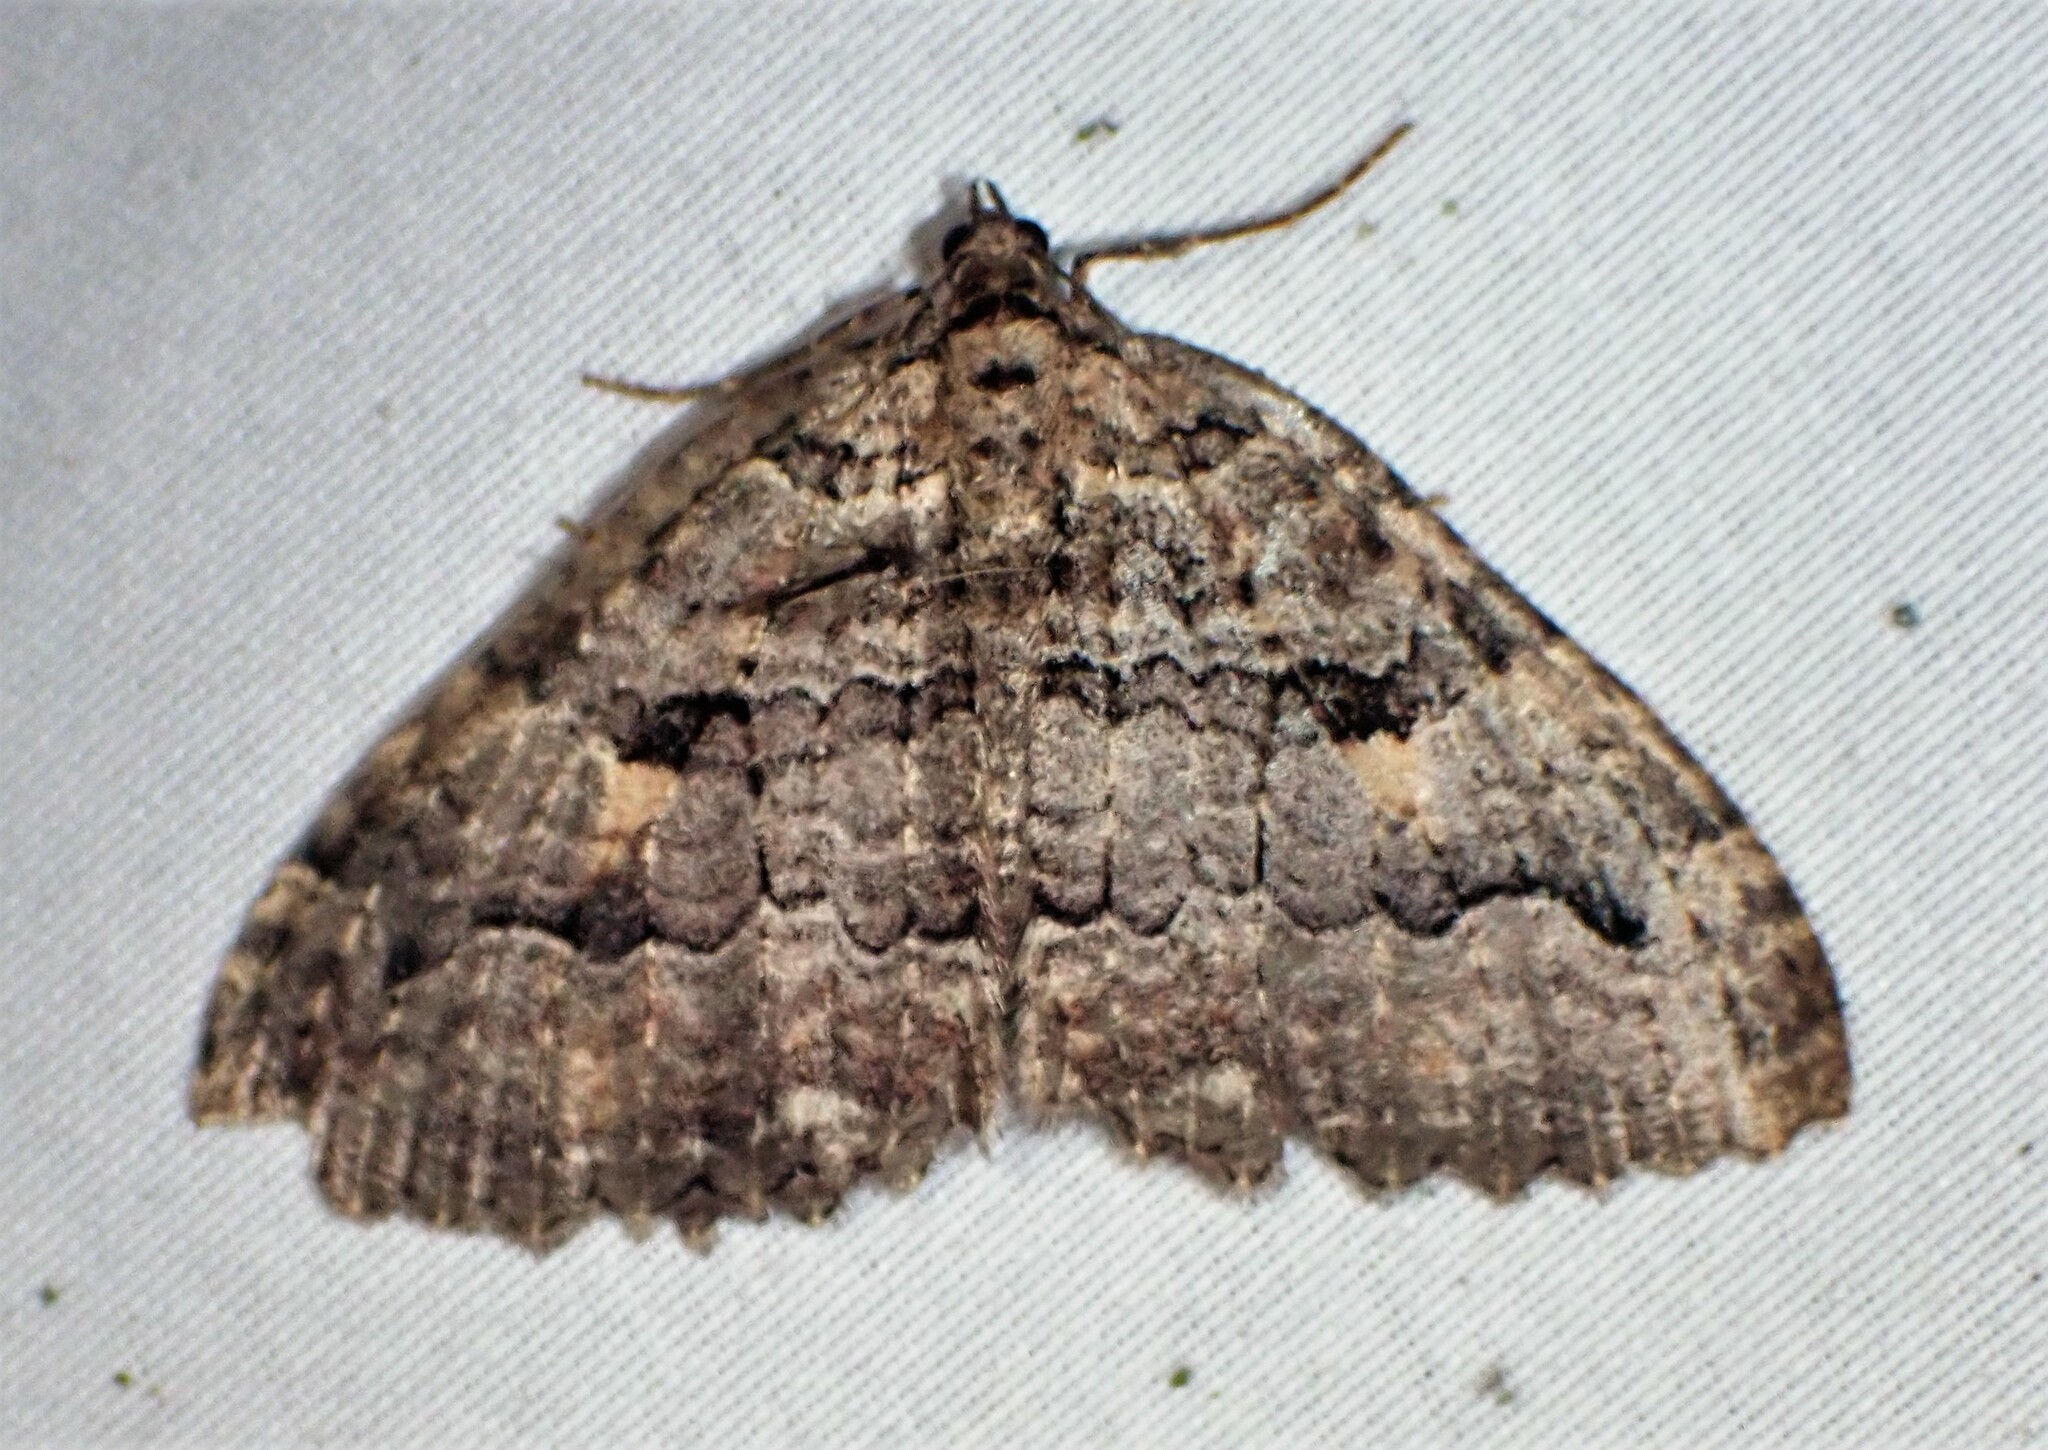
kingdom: Animalia
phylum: Arthropoda
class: Insecta
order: Lepidoptera
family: Geometridae
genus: Triphosa
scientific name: Triphosa haesitata
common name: Tissue moth
